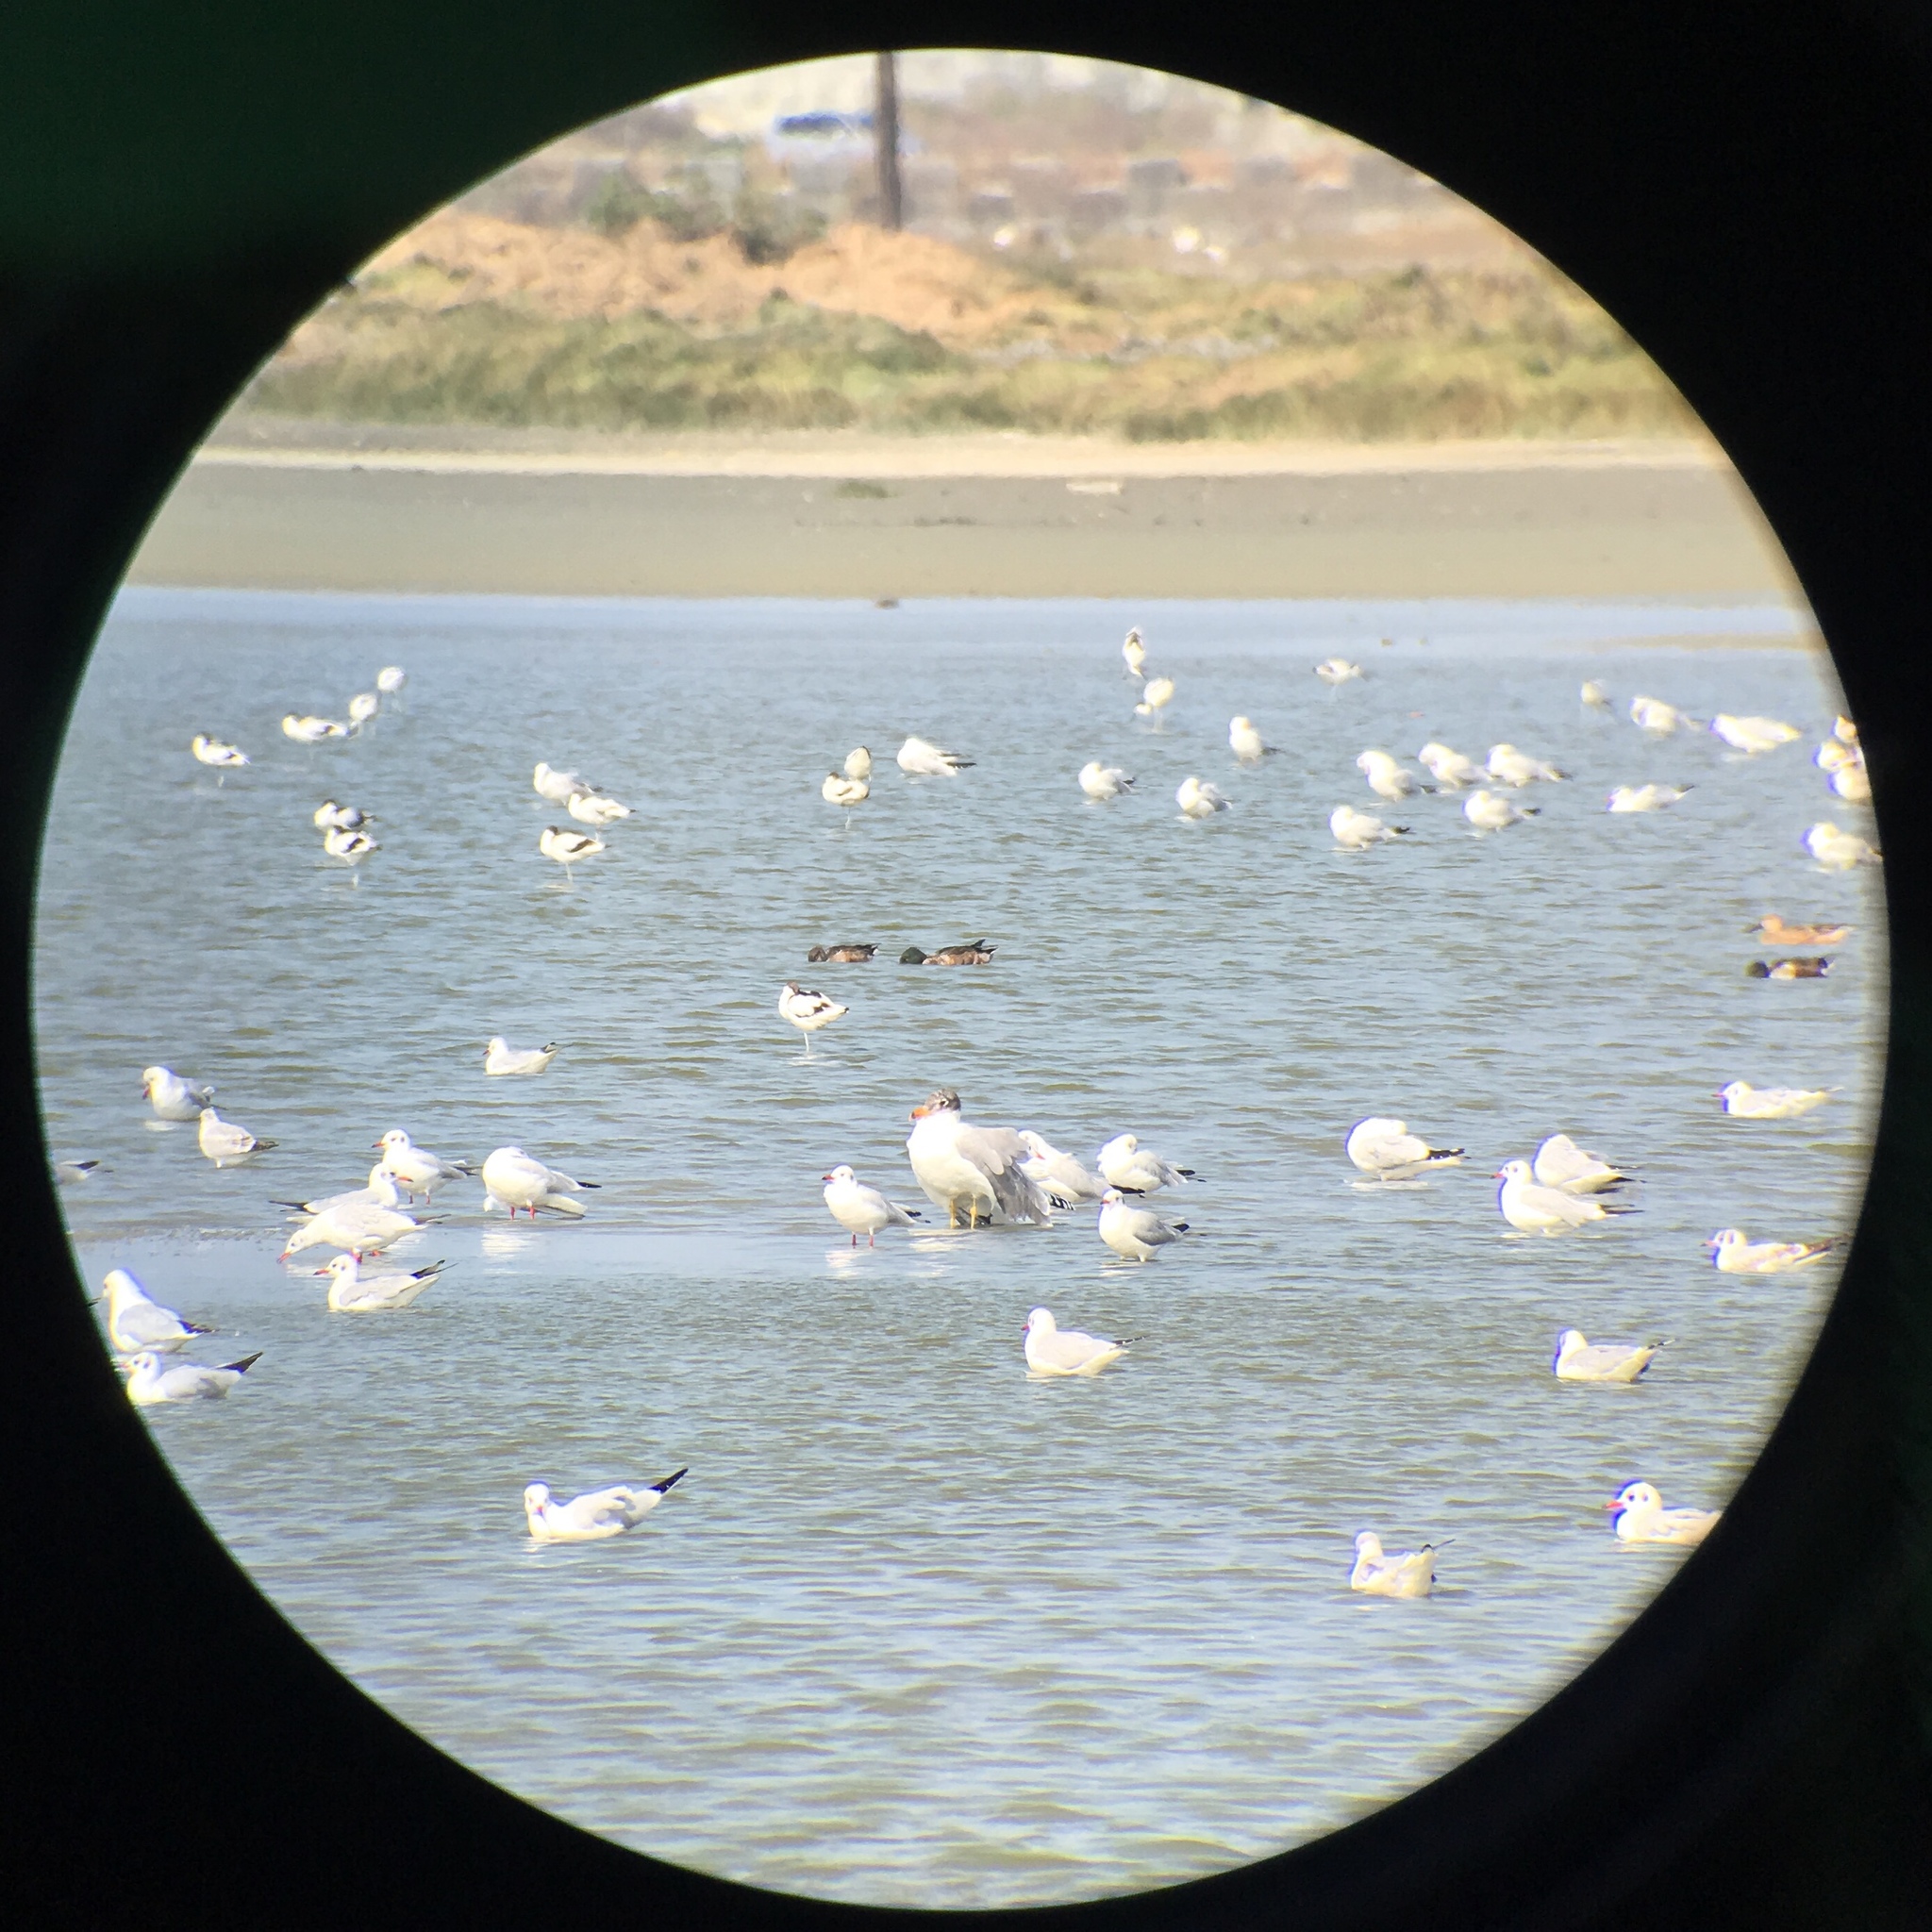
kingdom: Animalia
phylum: Chordata
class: Aves
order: Charadriiformes
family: Laridae
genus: Ichthyaetus
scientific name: Ichthyaetus ichthyaetus
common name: Pallas's gull
